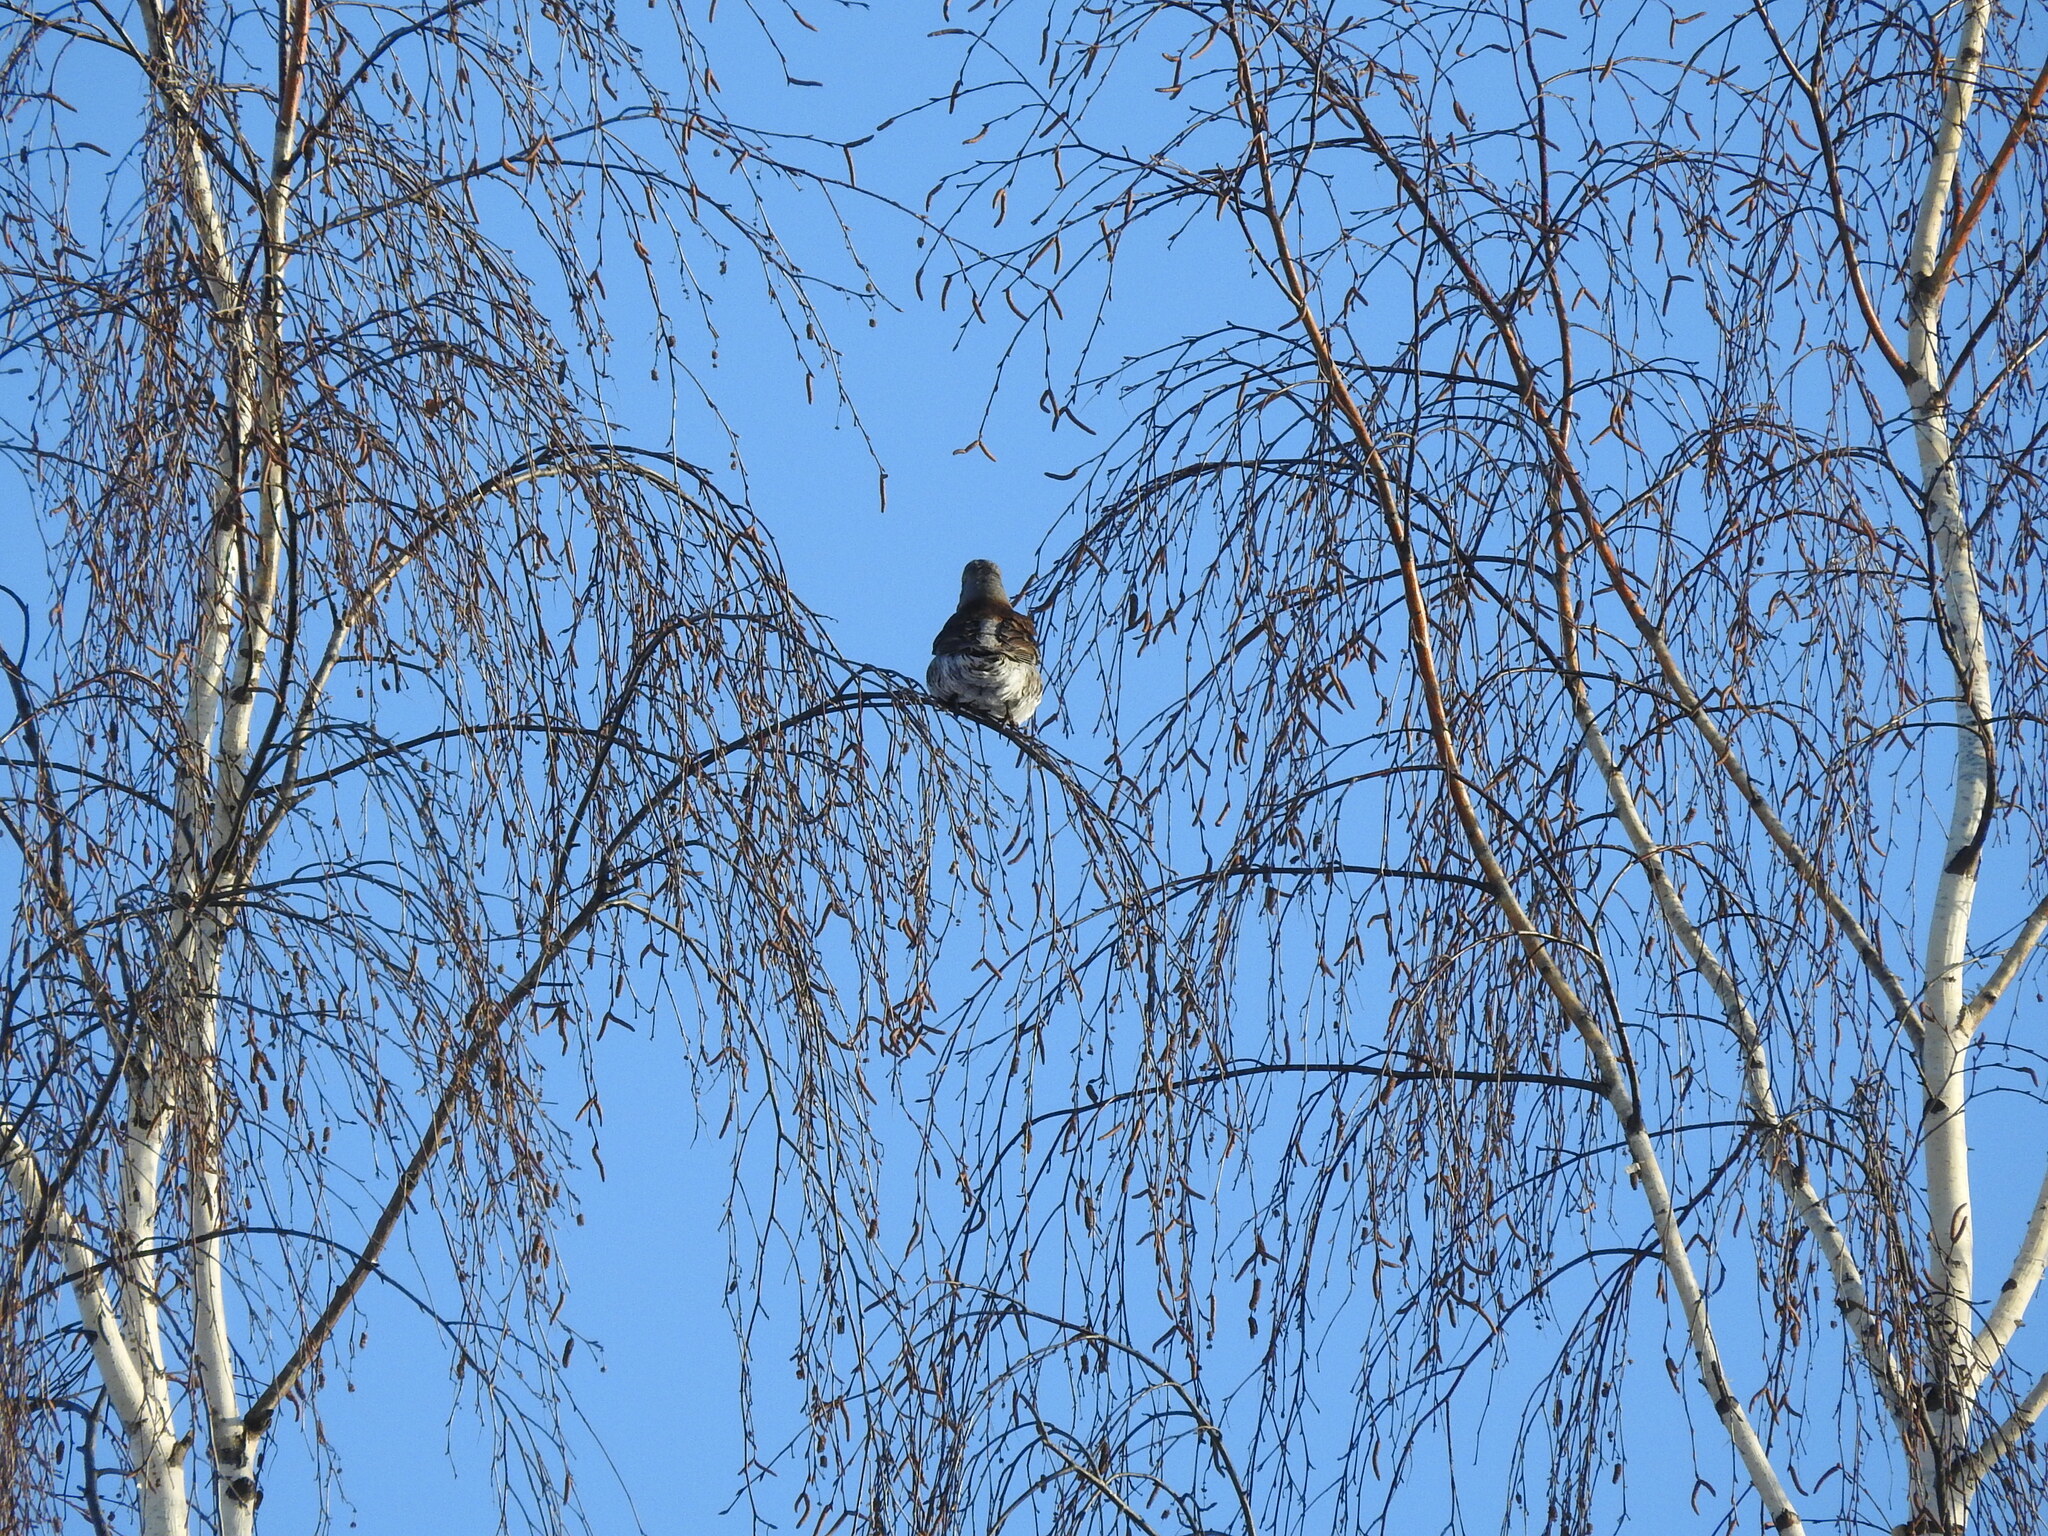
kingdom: Animalia
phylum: Chordata
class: Aves
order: Passeriformes
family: Turdidae
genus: Turdus
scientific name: Turdus pilaris
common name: Fieldfare
